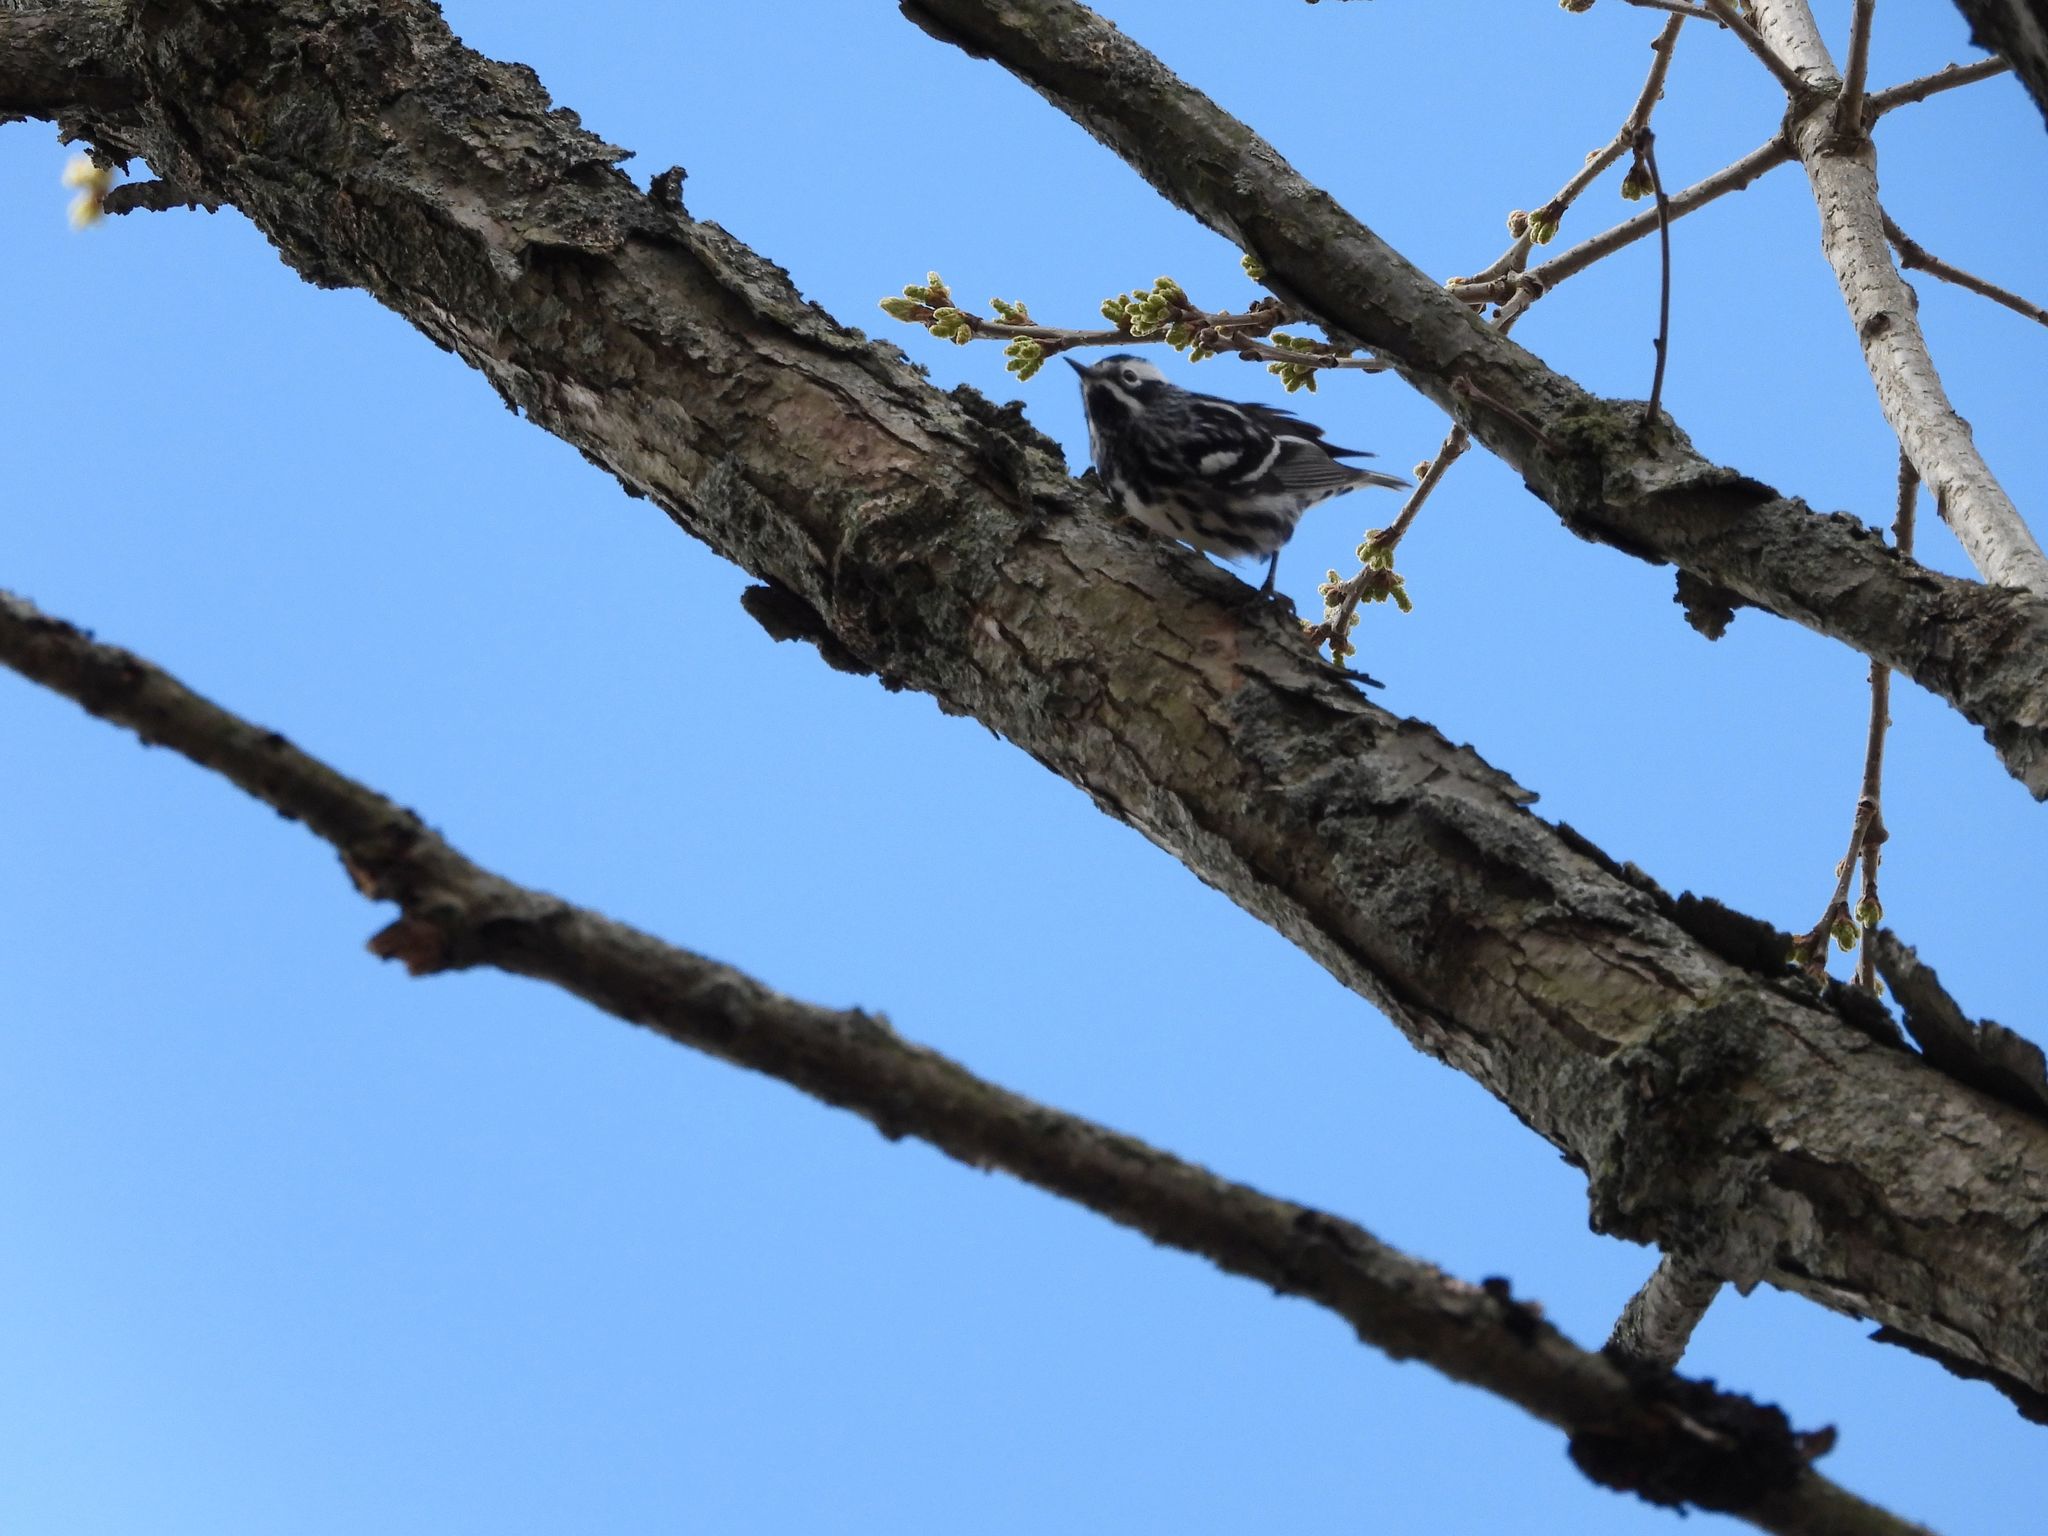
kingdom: Animalia
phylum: Chordata
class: Aves
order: Passeriformes
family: Parulidae
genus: Mniotilta
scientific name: Mniotilta varia
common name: Black-and-white warbler
